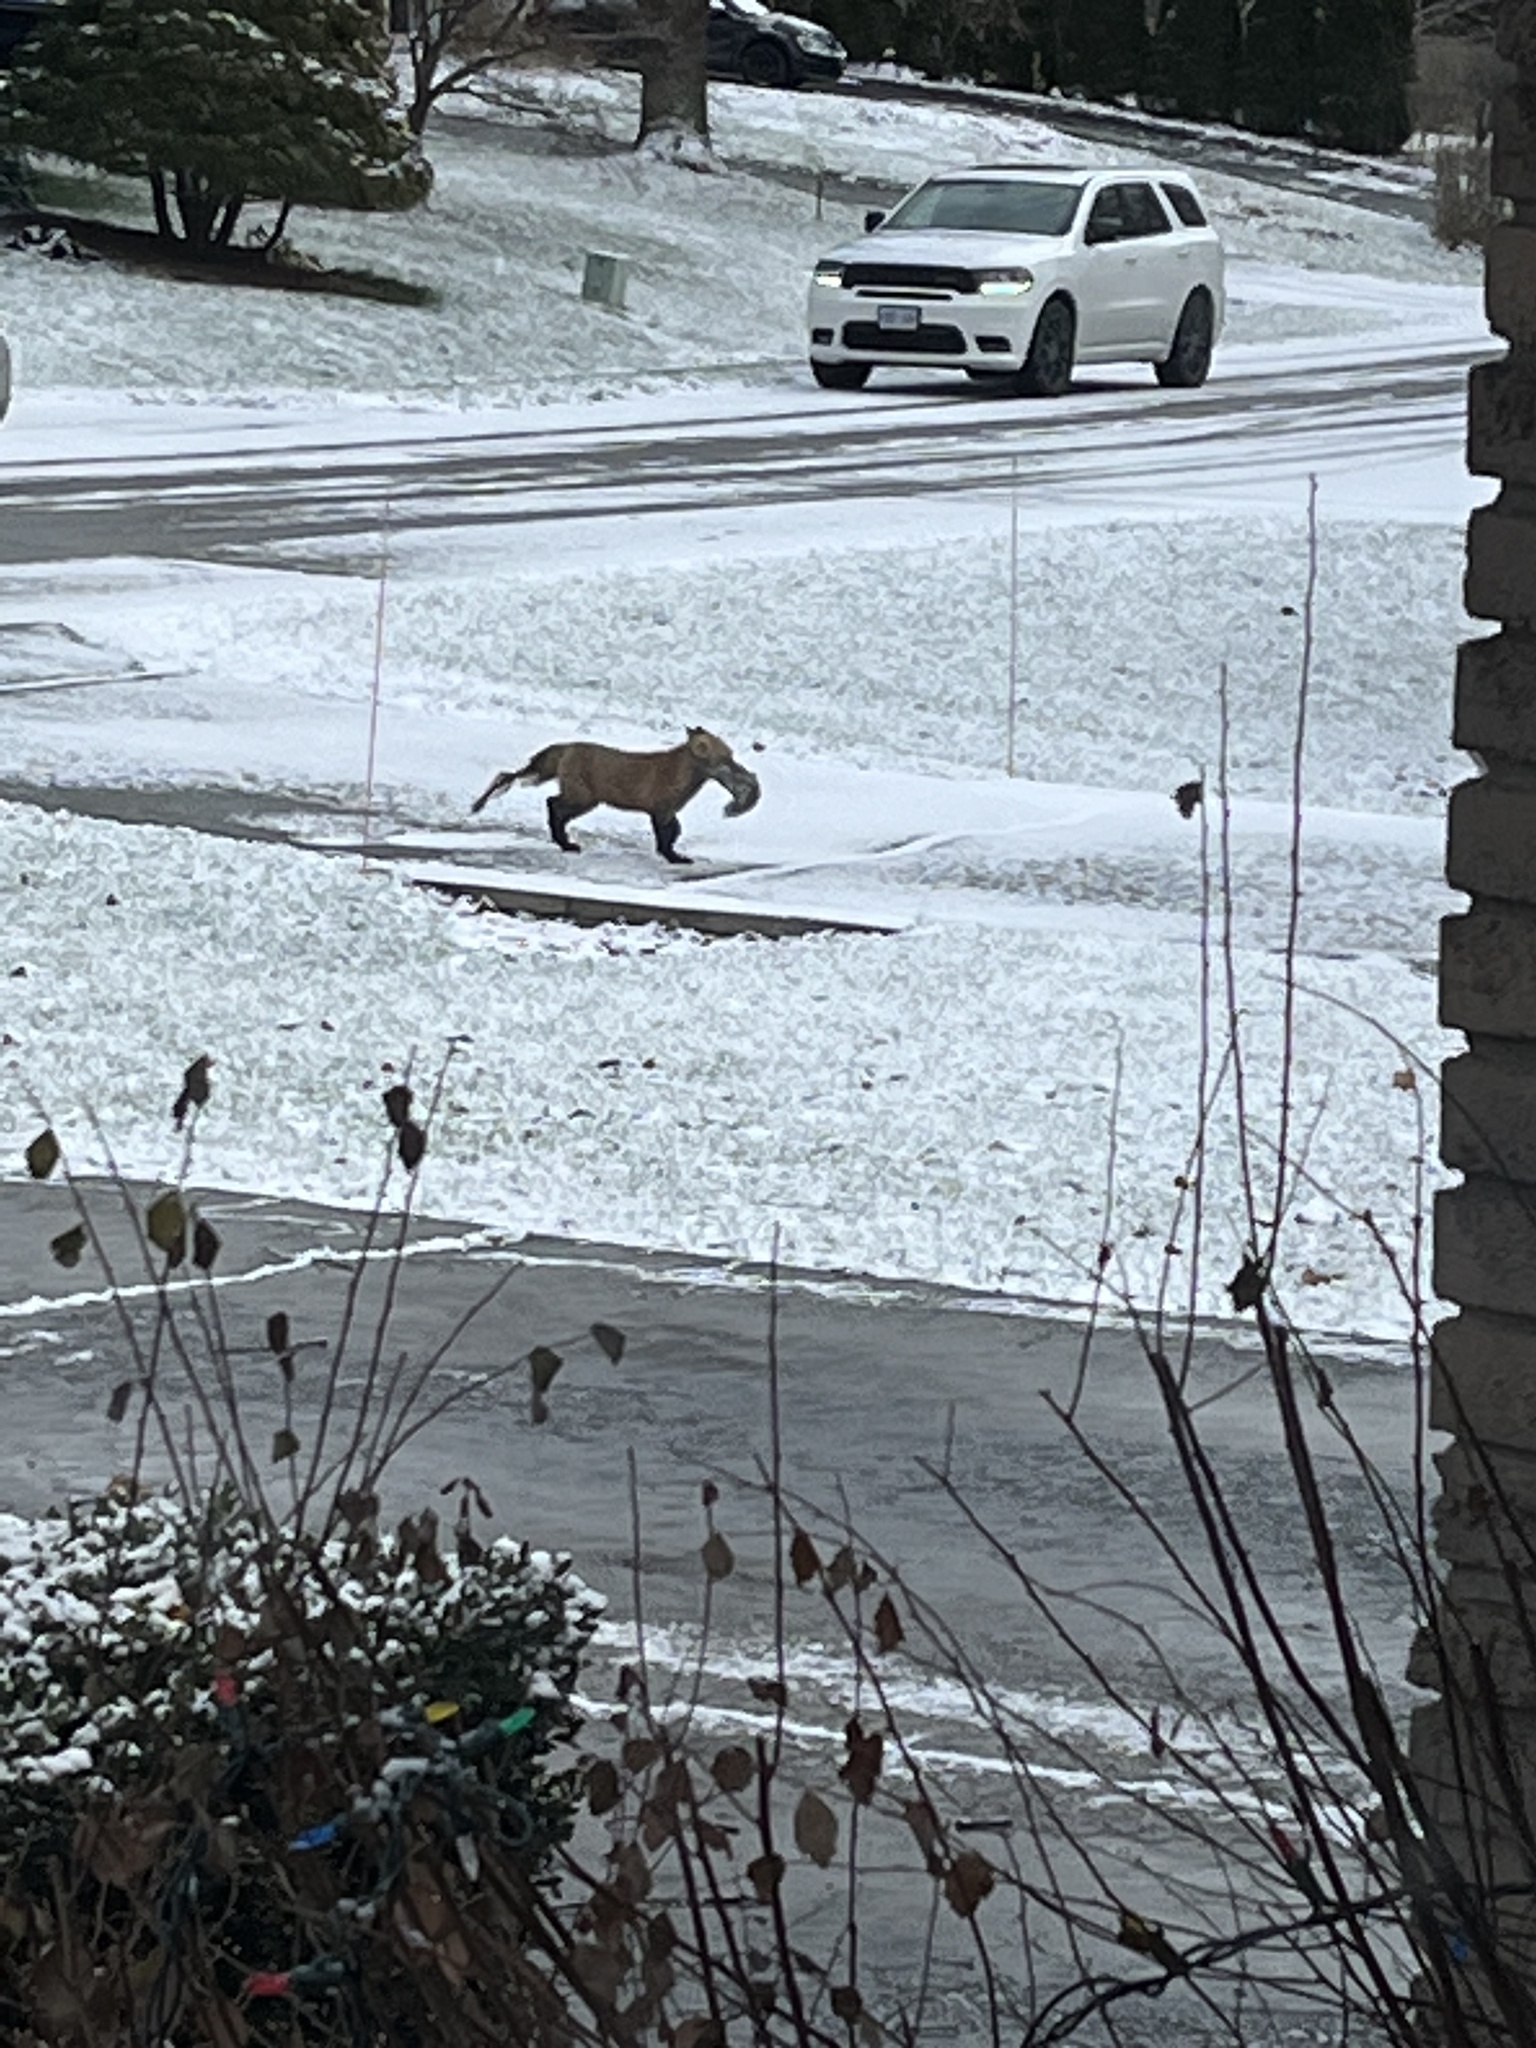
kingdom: Animalia
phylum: Chordata
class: Mammalia
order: Carnivora
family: Canidae
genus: Vulpes
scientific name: Vulpes vulpes
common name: Red fox
